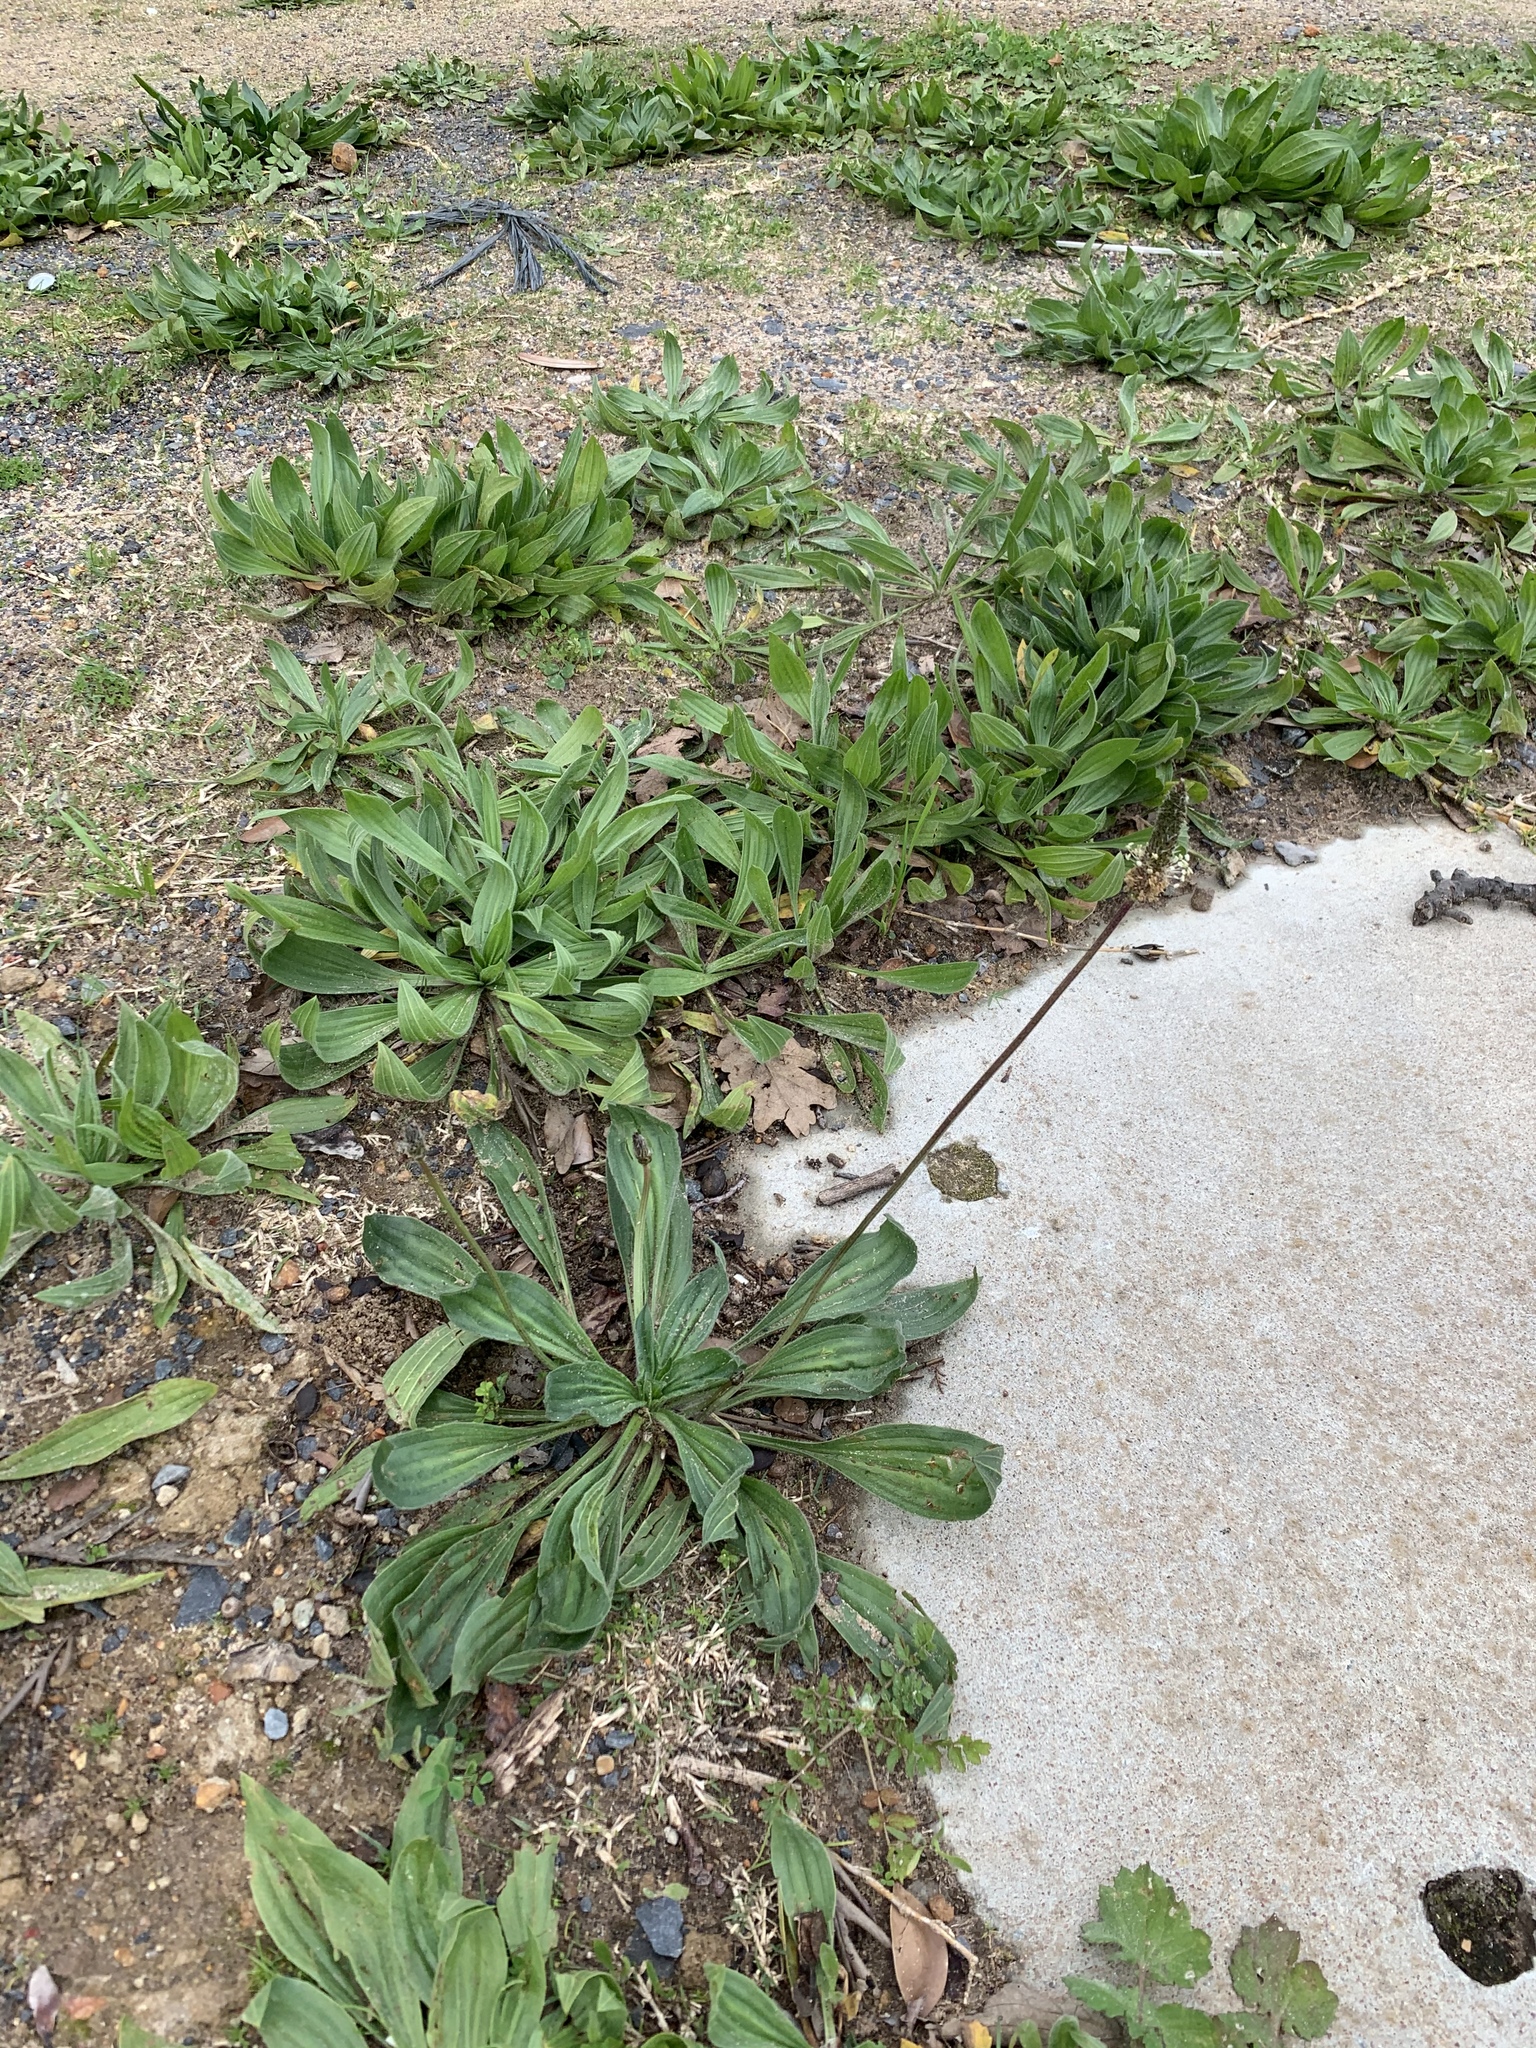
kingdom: Plantae
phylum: Tracheophyta
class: Magnoliopsida
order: Lamiales
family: Plantaginaceae
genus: Plantago
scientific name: Plantago lanceolata
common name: Ribwort plantain
